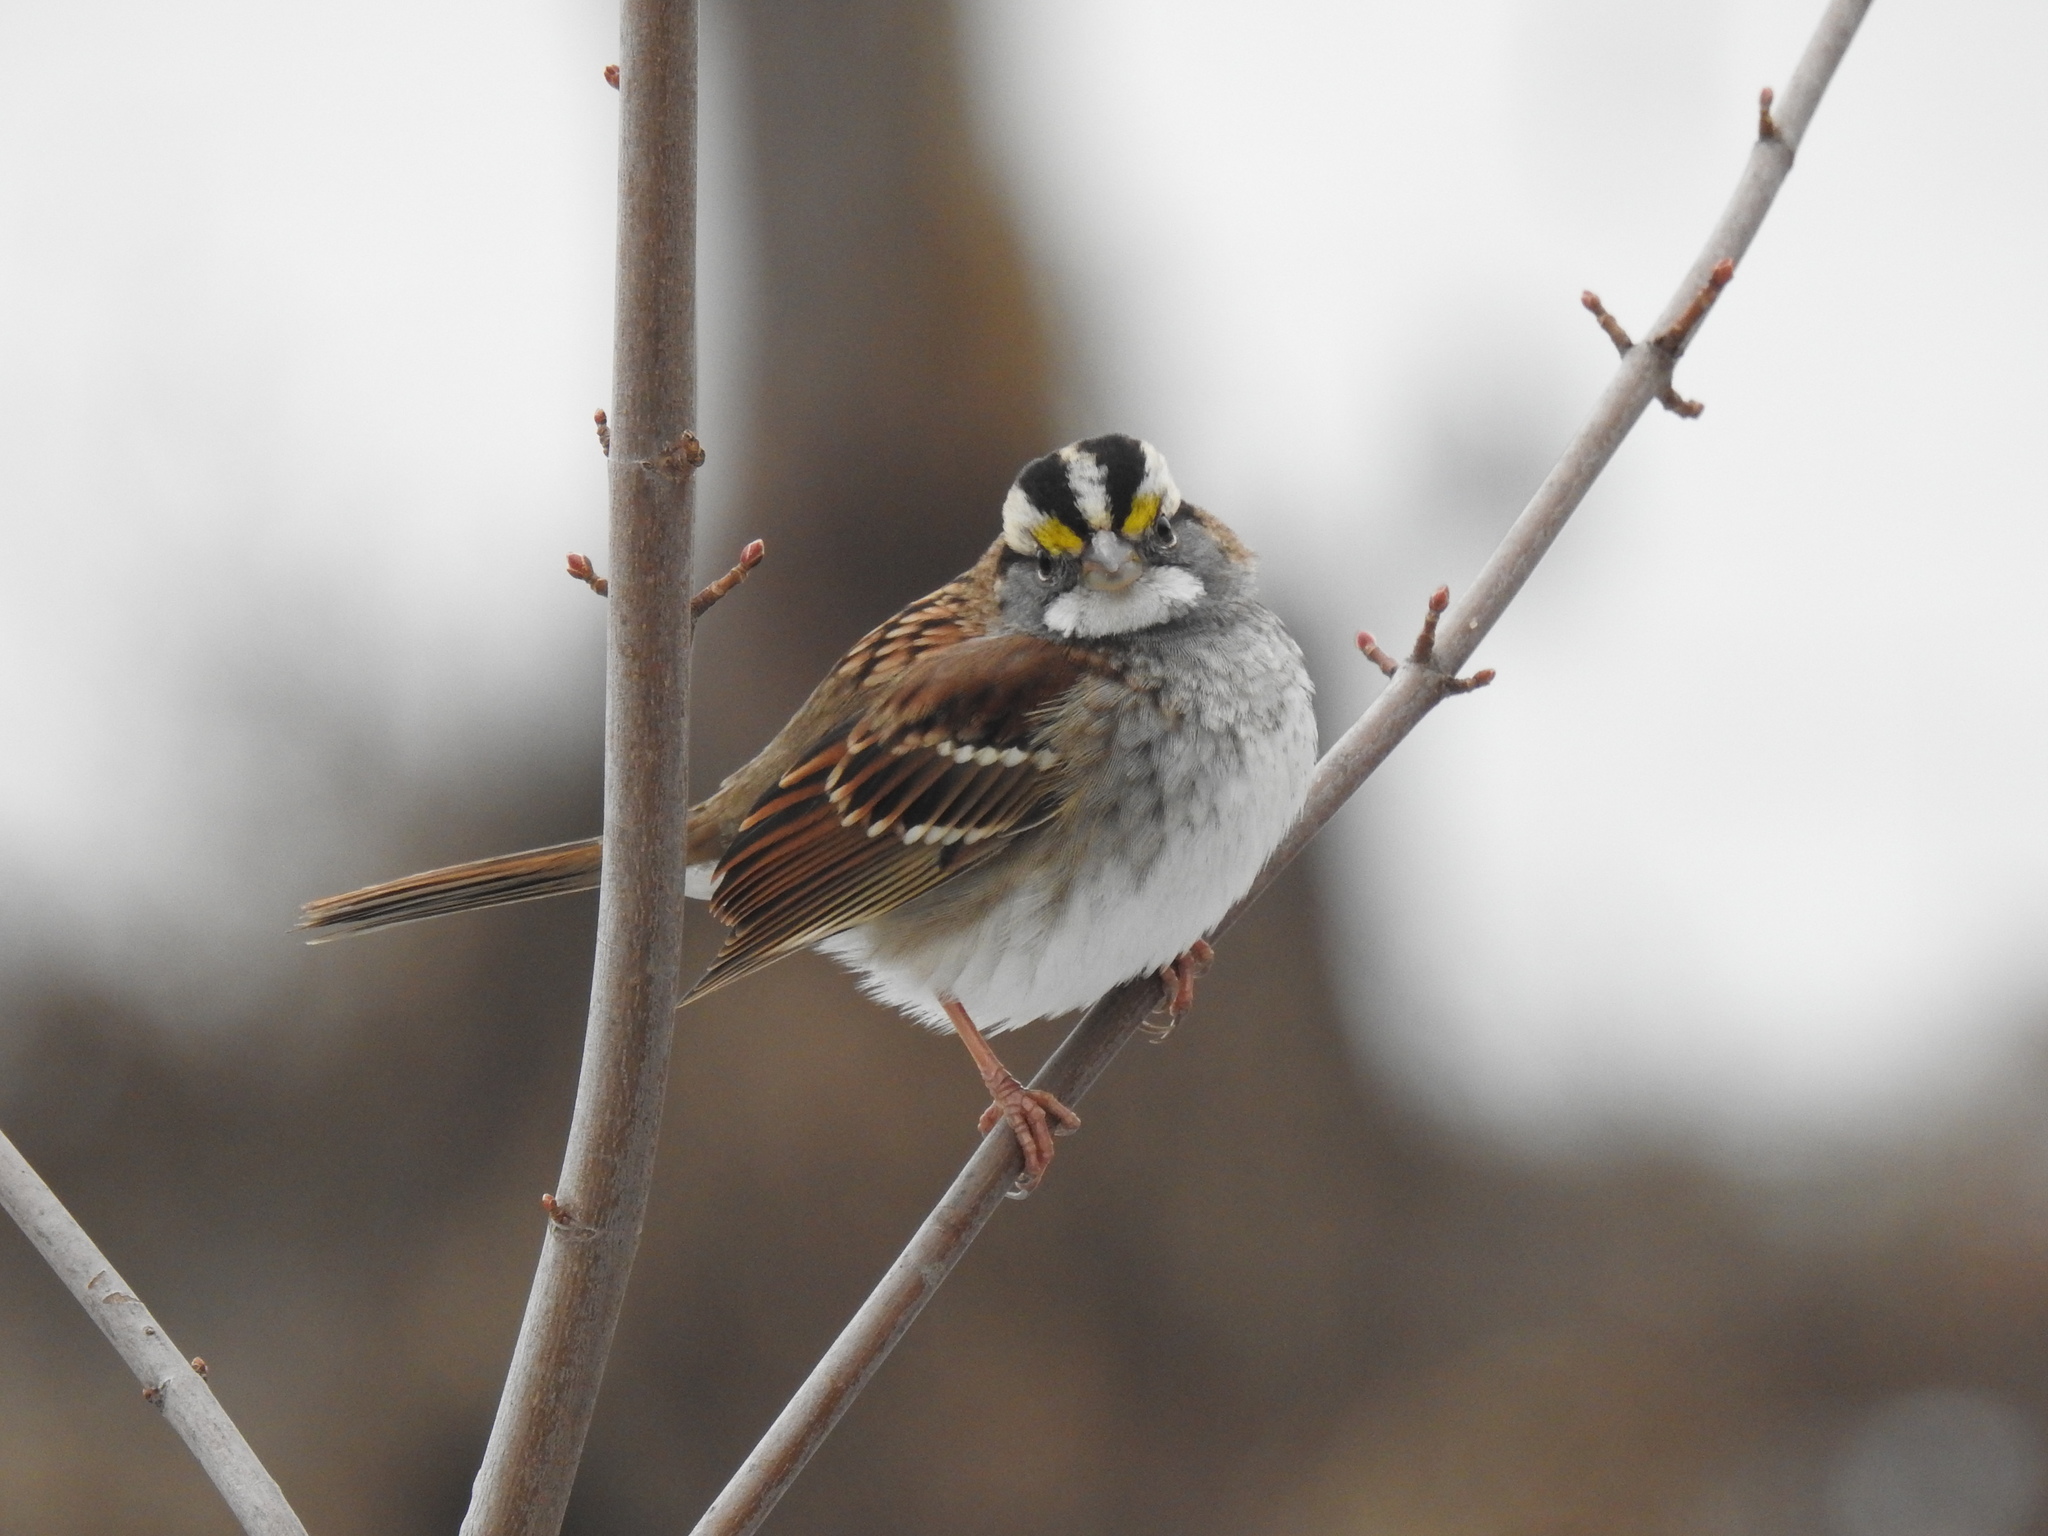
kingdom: Animalia
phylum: Chordata
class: Aves
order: Passeriformes
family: Passerellidae
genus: Zonotrichia
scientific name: Zonotrichia albicollis
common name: White-throated sparrow
